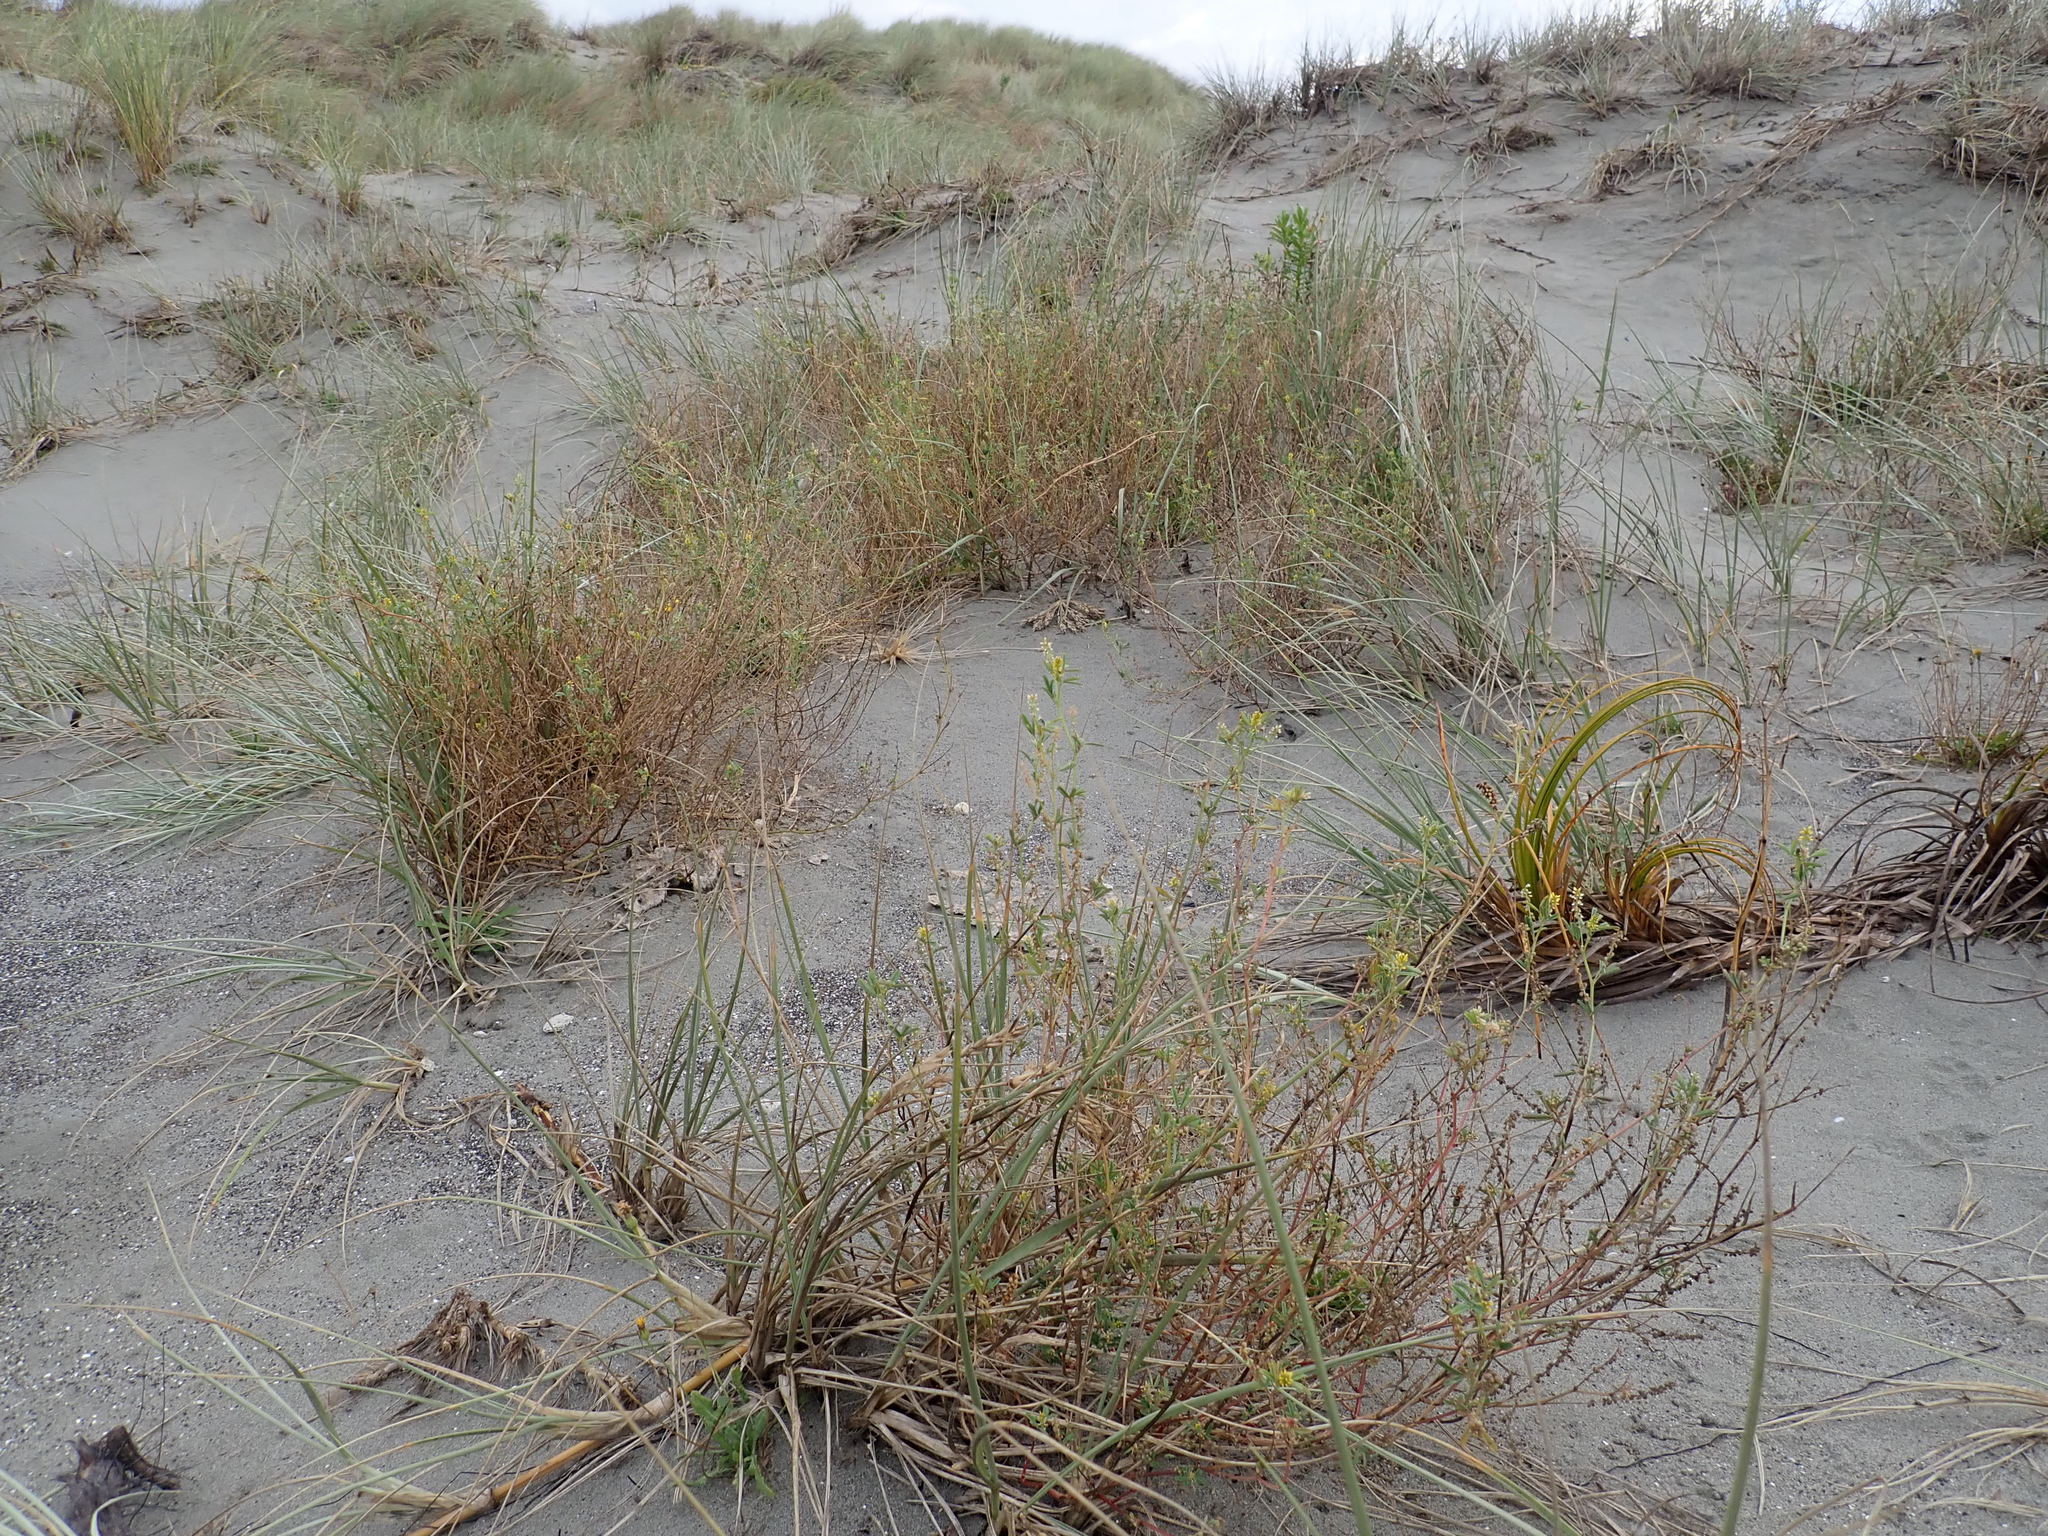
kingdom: Plantae
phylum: Tracheophyta
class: Magnoliopsida
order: Fabales
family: Fabaceae
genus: Melilotus
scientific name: Melilotus indicus
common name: Small melilot
